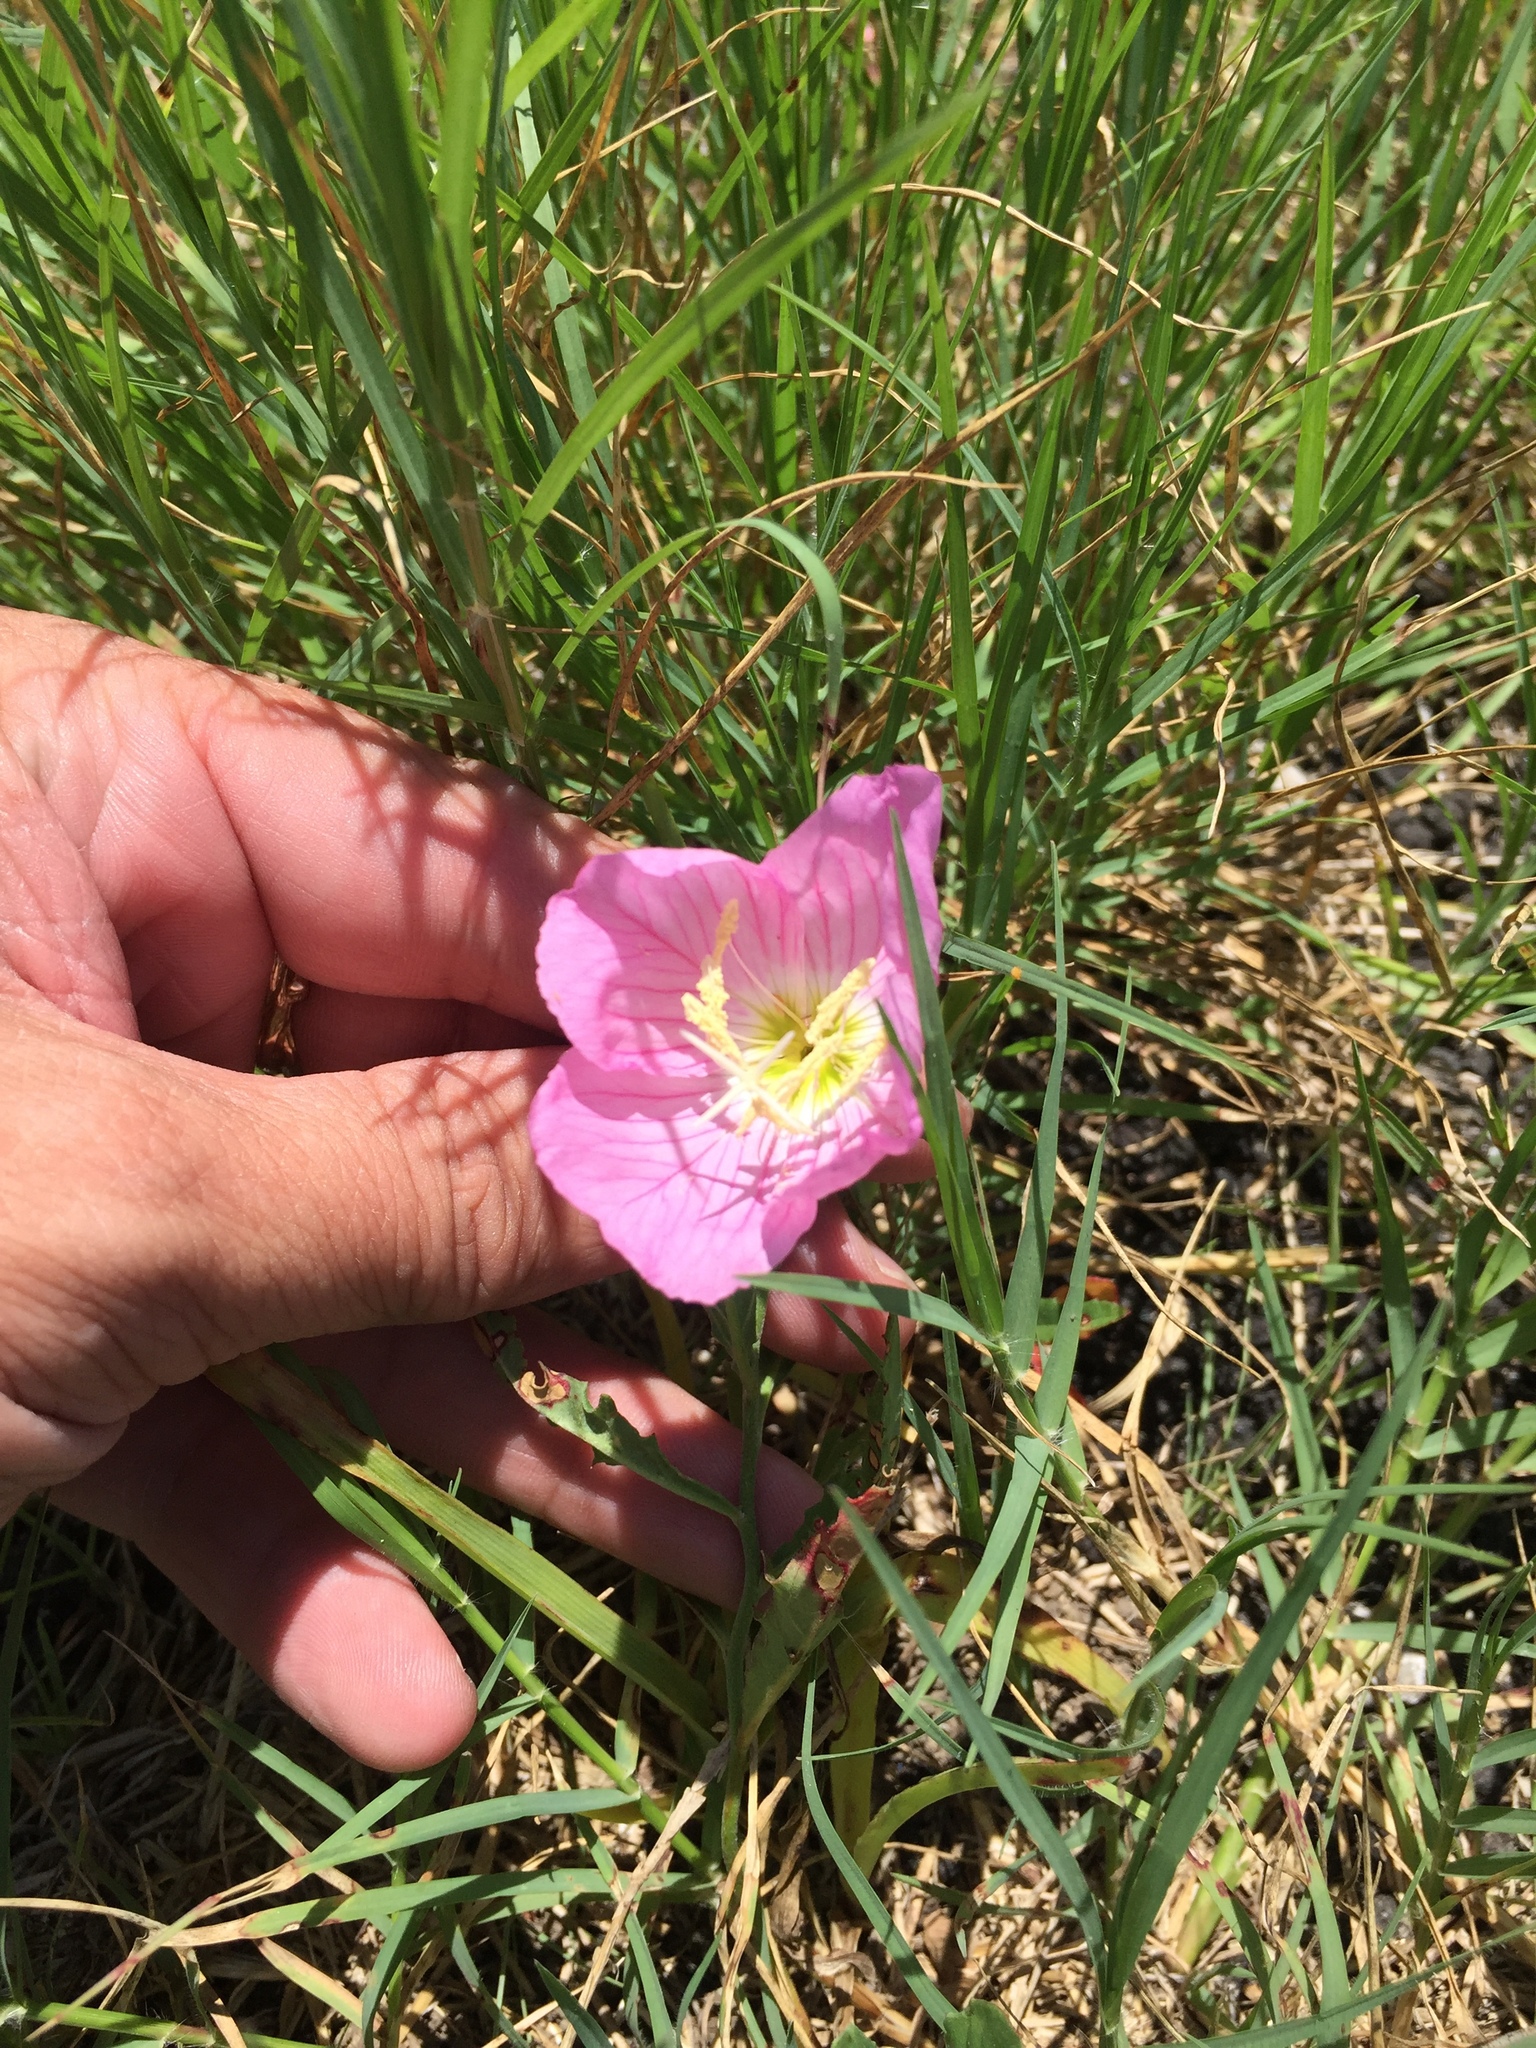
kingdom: Plantae
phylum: Tracheophyta
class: Magnoliopsida
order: Myrtales
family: Onagraceae
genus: Oenothera
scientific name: Oenothera speciosa
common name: White evening-primrose
